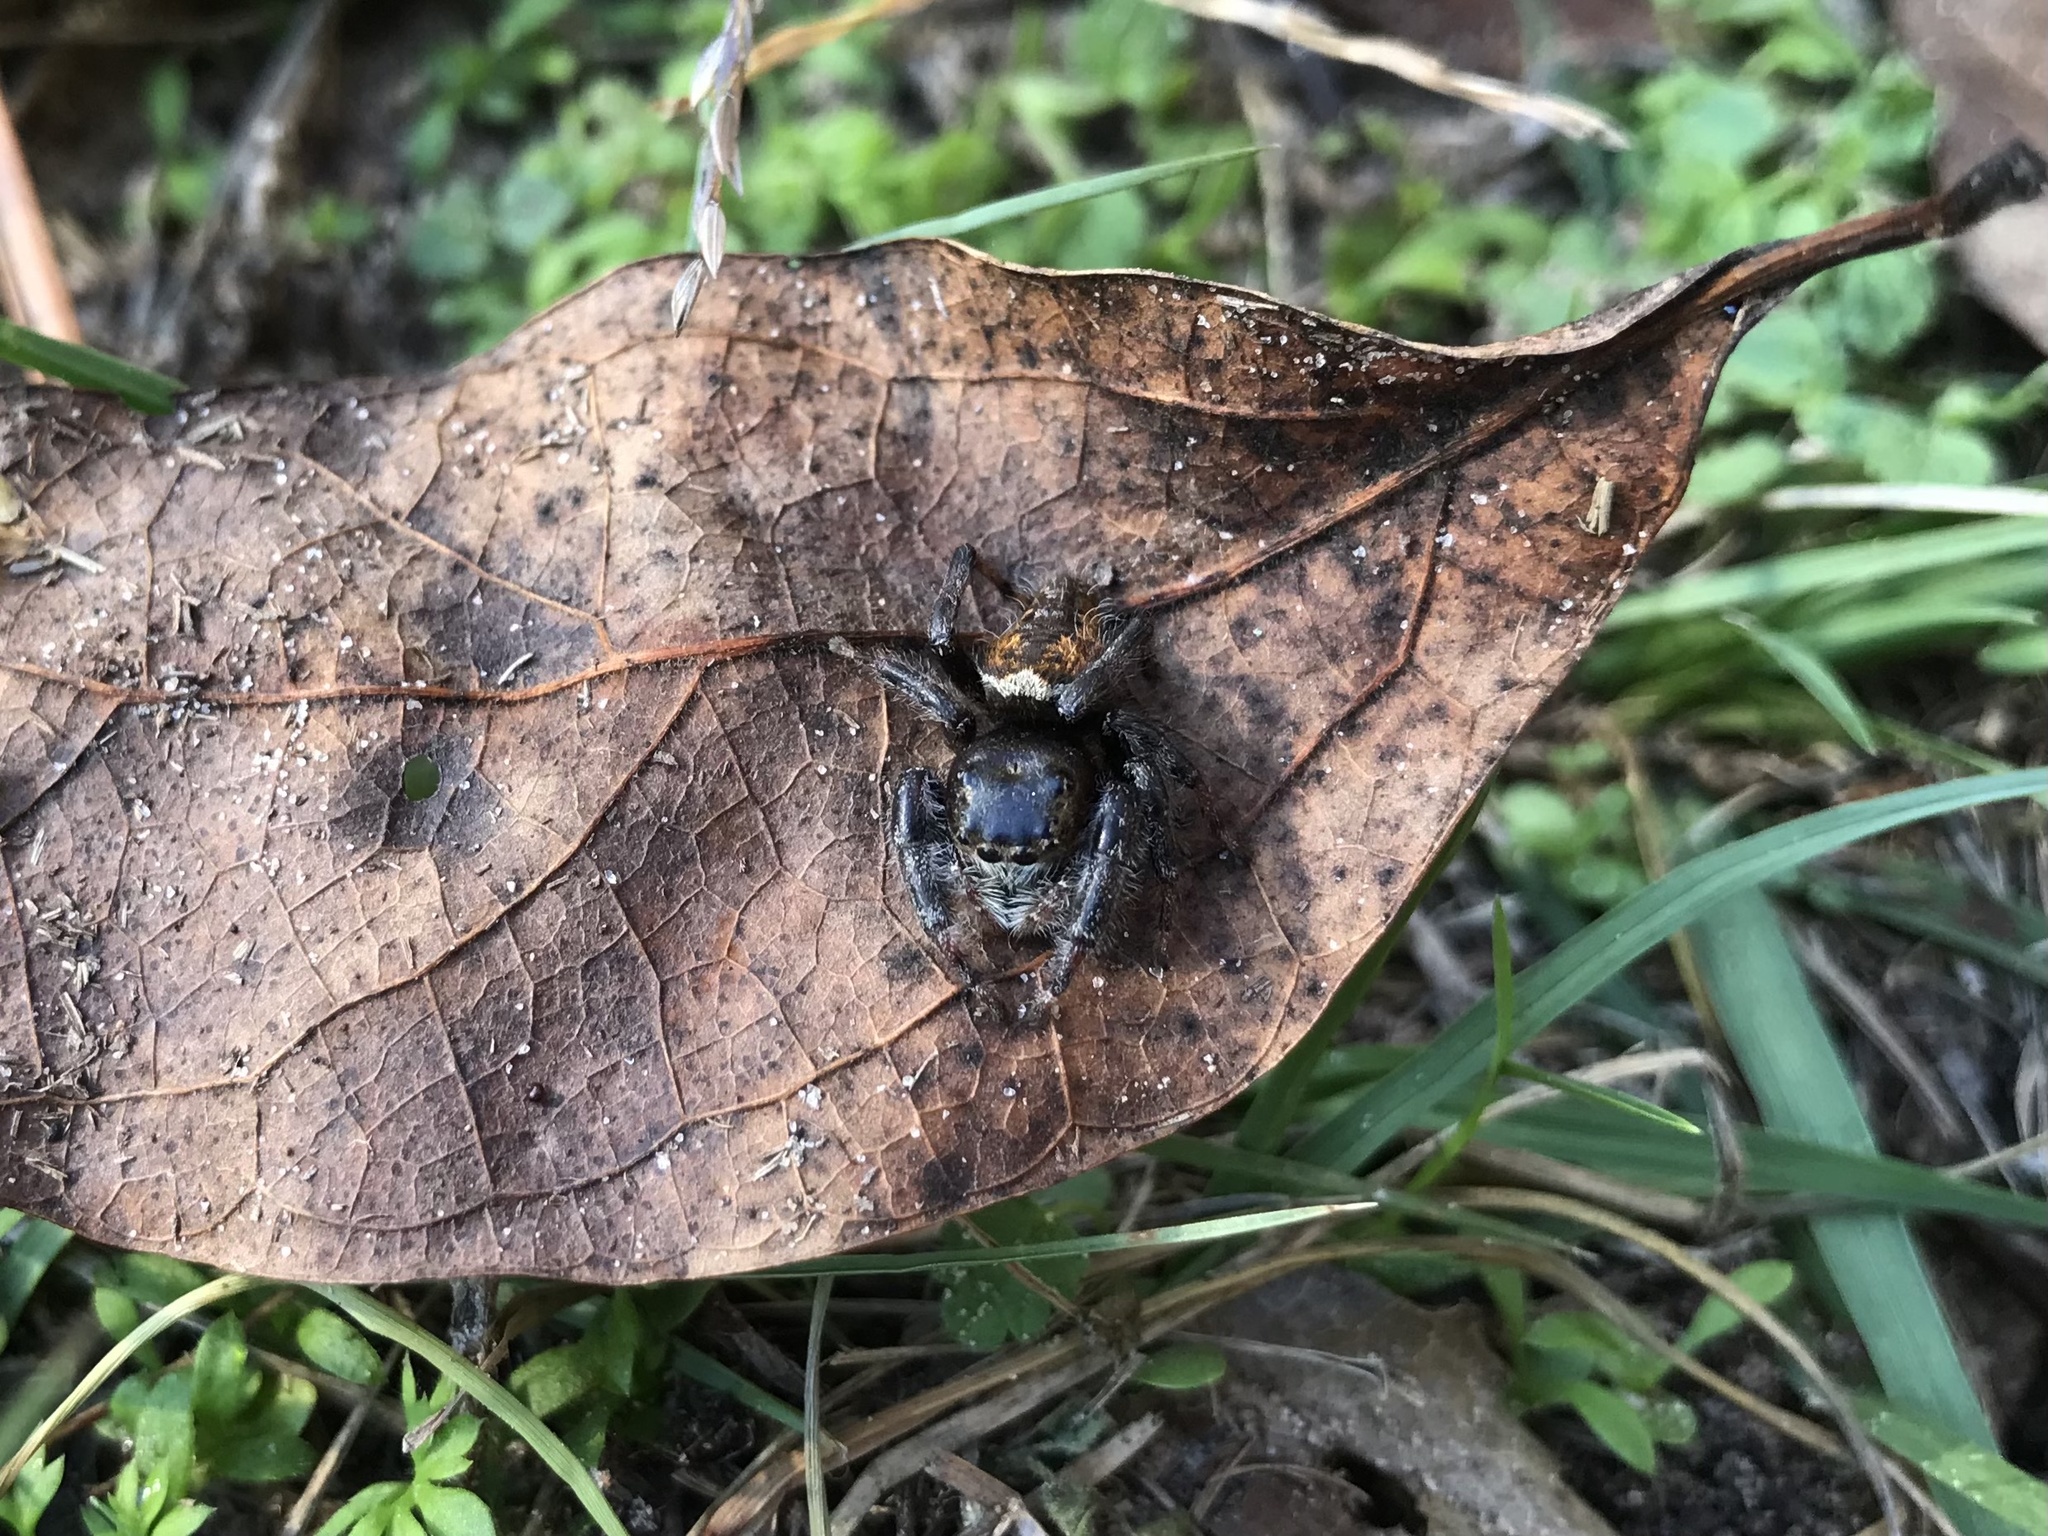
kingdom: Animalia
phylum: Arthropoda
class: Arachnida
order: Araneae
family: Salticidae
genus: Phidippus
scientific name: Phidippus clarus
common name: Brilliant jumping spider
